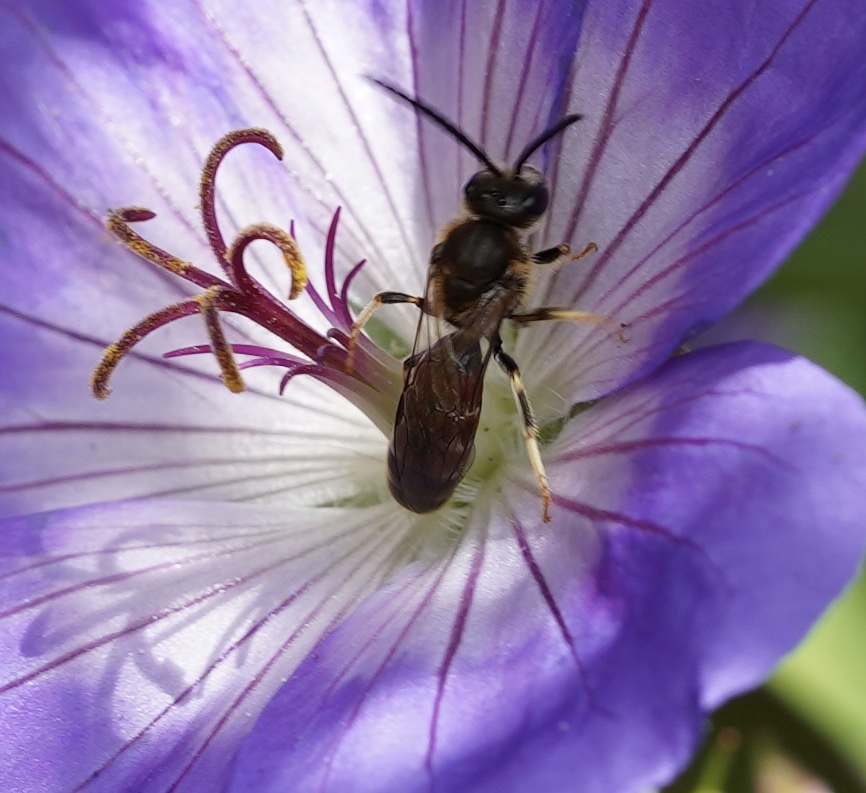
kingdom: Animalia
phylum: Arthropoda
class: Insecta
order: Hymenoptera
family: Halictidae
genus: Lasioglossum
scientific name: Lasioglossum calceatum
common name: Common furrow bee
